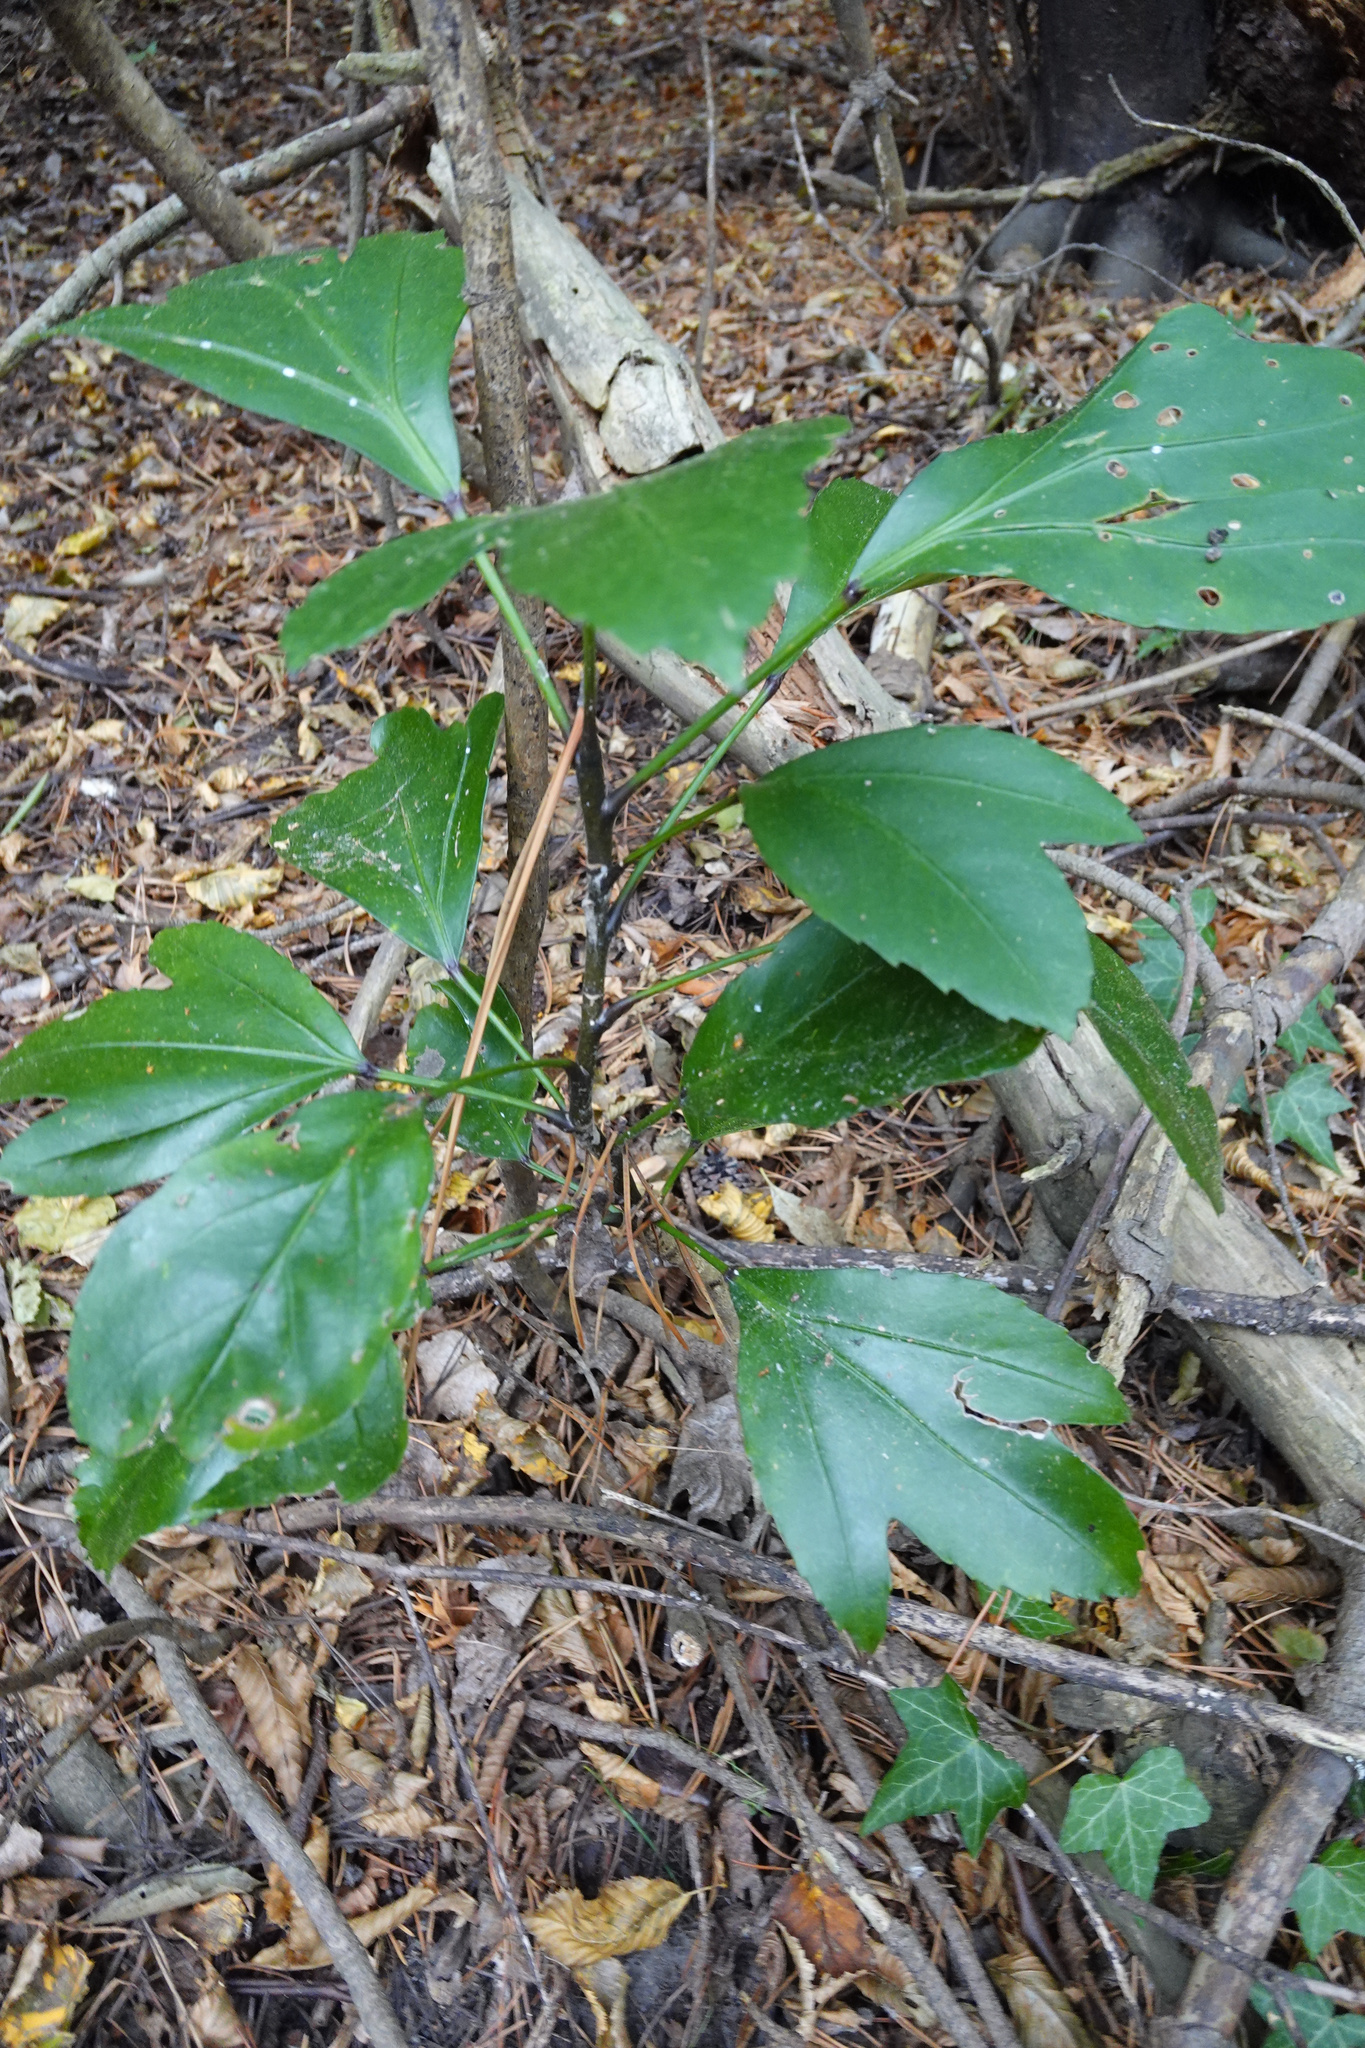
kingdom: Plantae
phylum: Tracheophyta
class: Magnoliopsida
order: Apiales
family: Araliaceae
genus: Pseudopanax
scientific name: Pseudopanax
